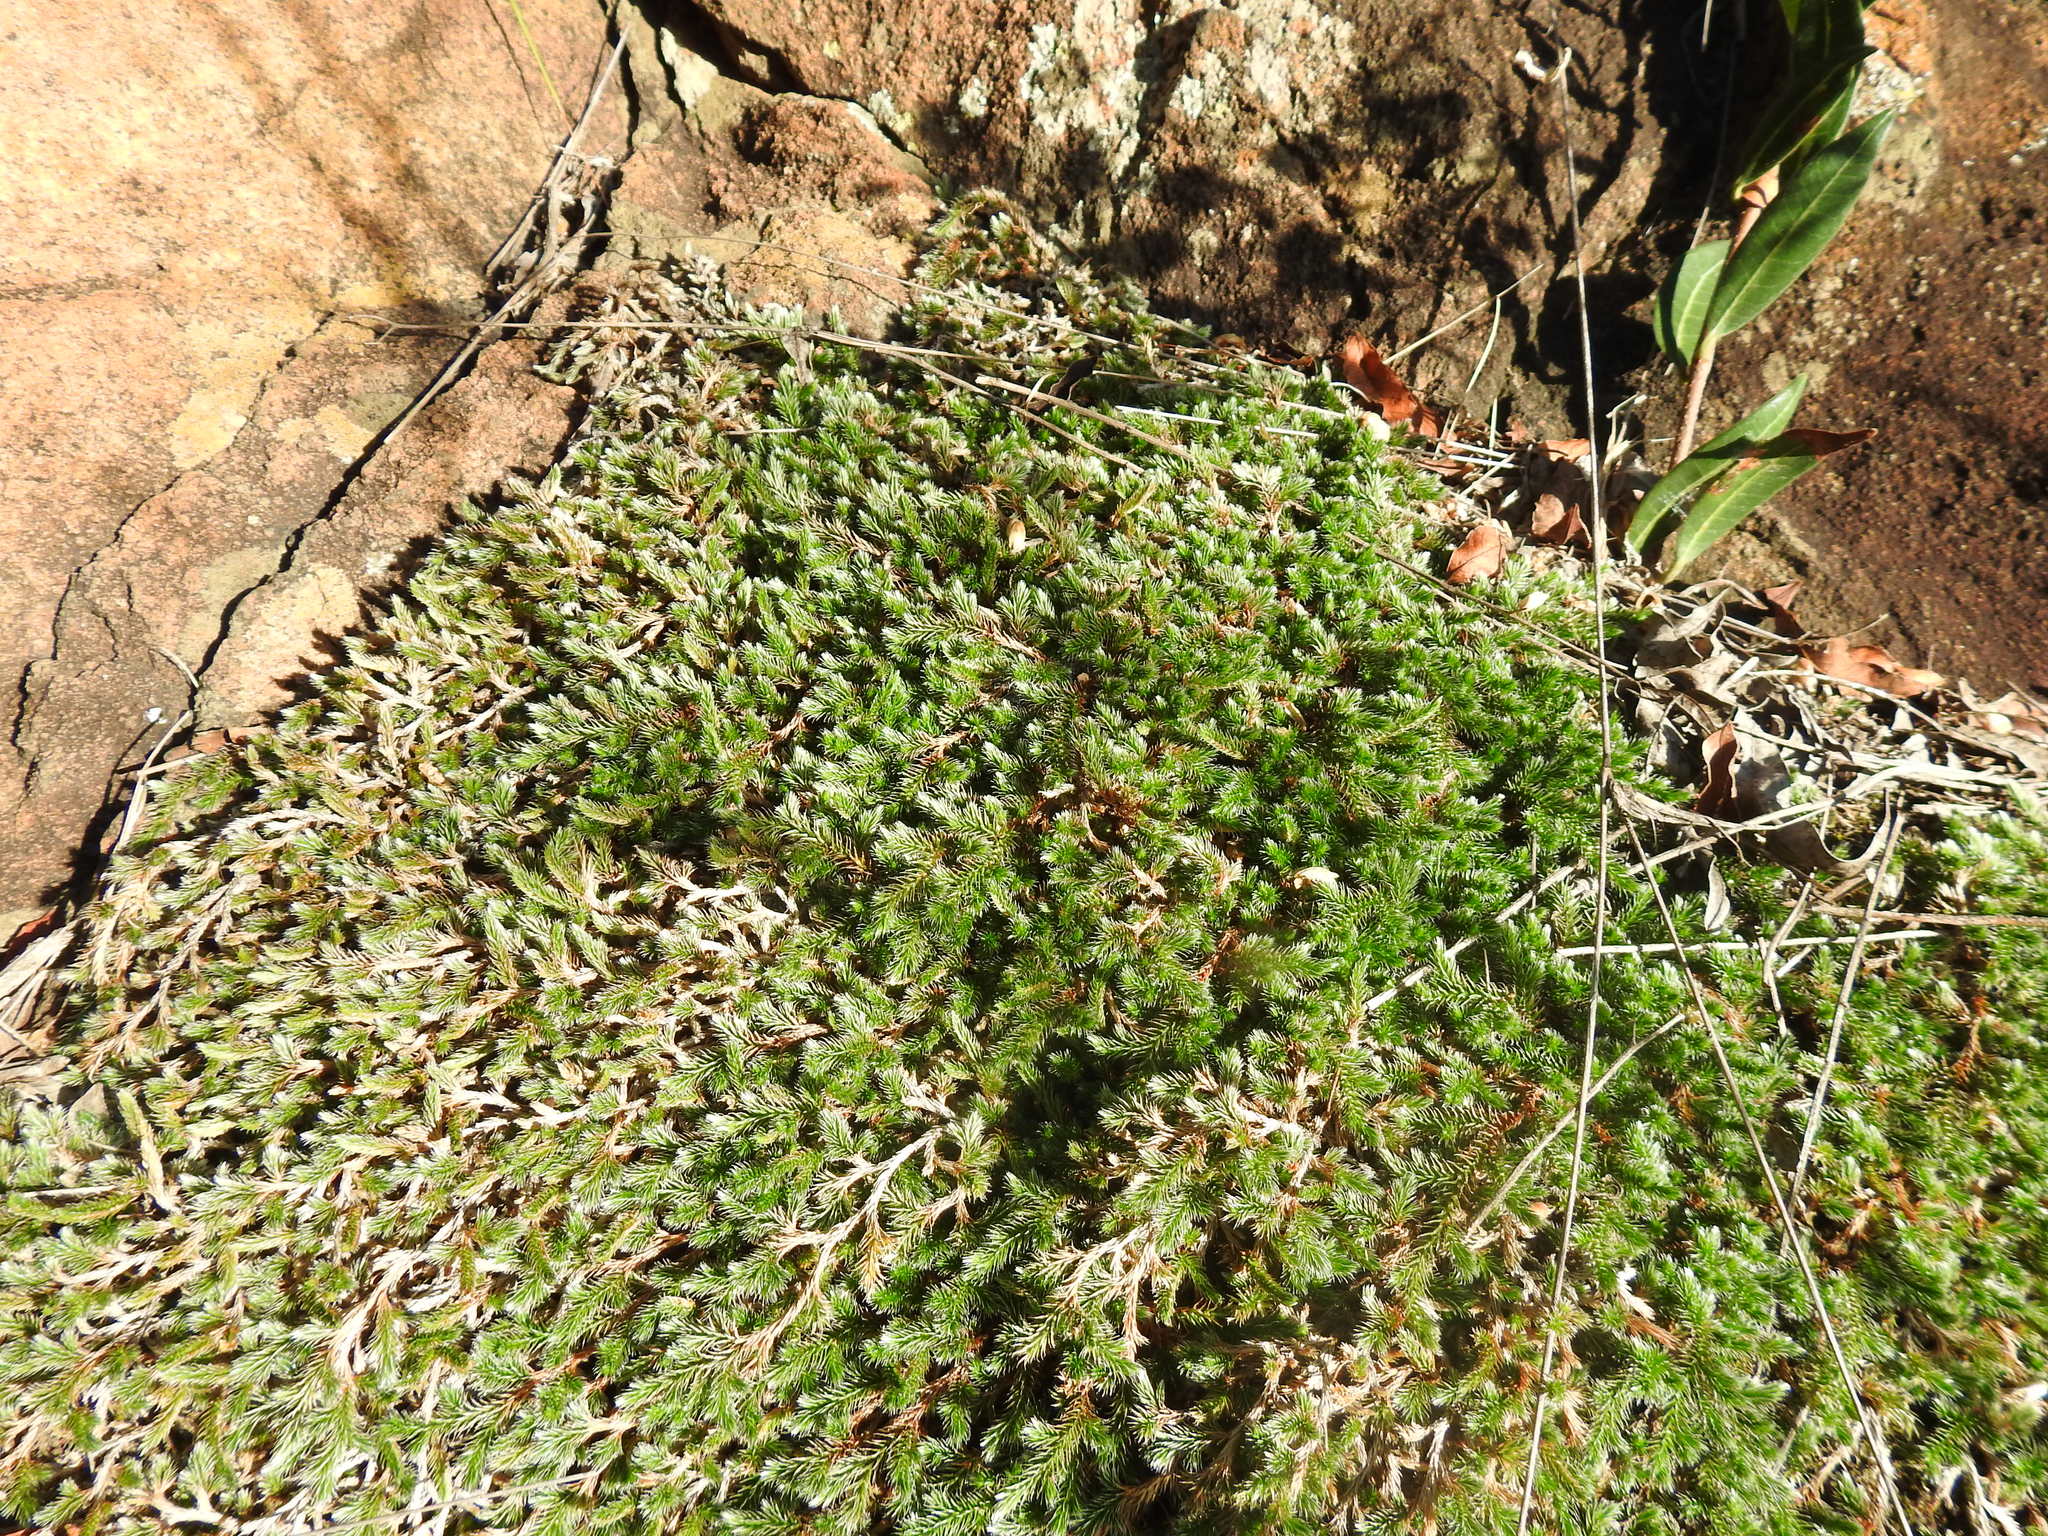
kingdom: Plantae
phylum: Tracheophyta
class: Lycopodiopsida
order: Selaginellales
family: Selaginellaceae
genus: Selaginella
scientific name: Selaginella dregei
